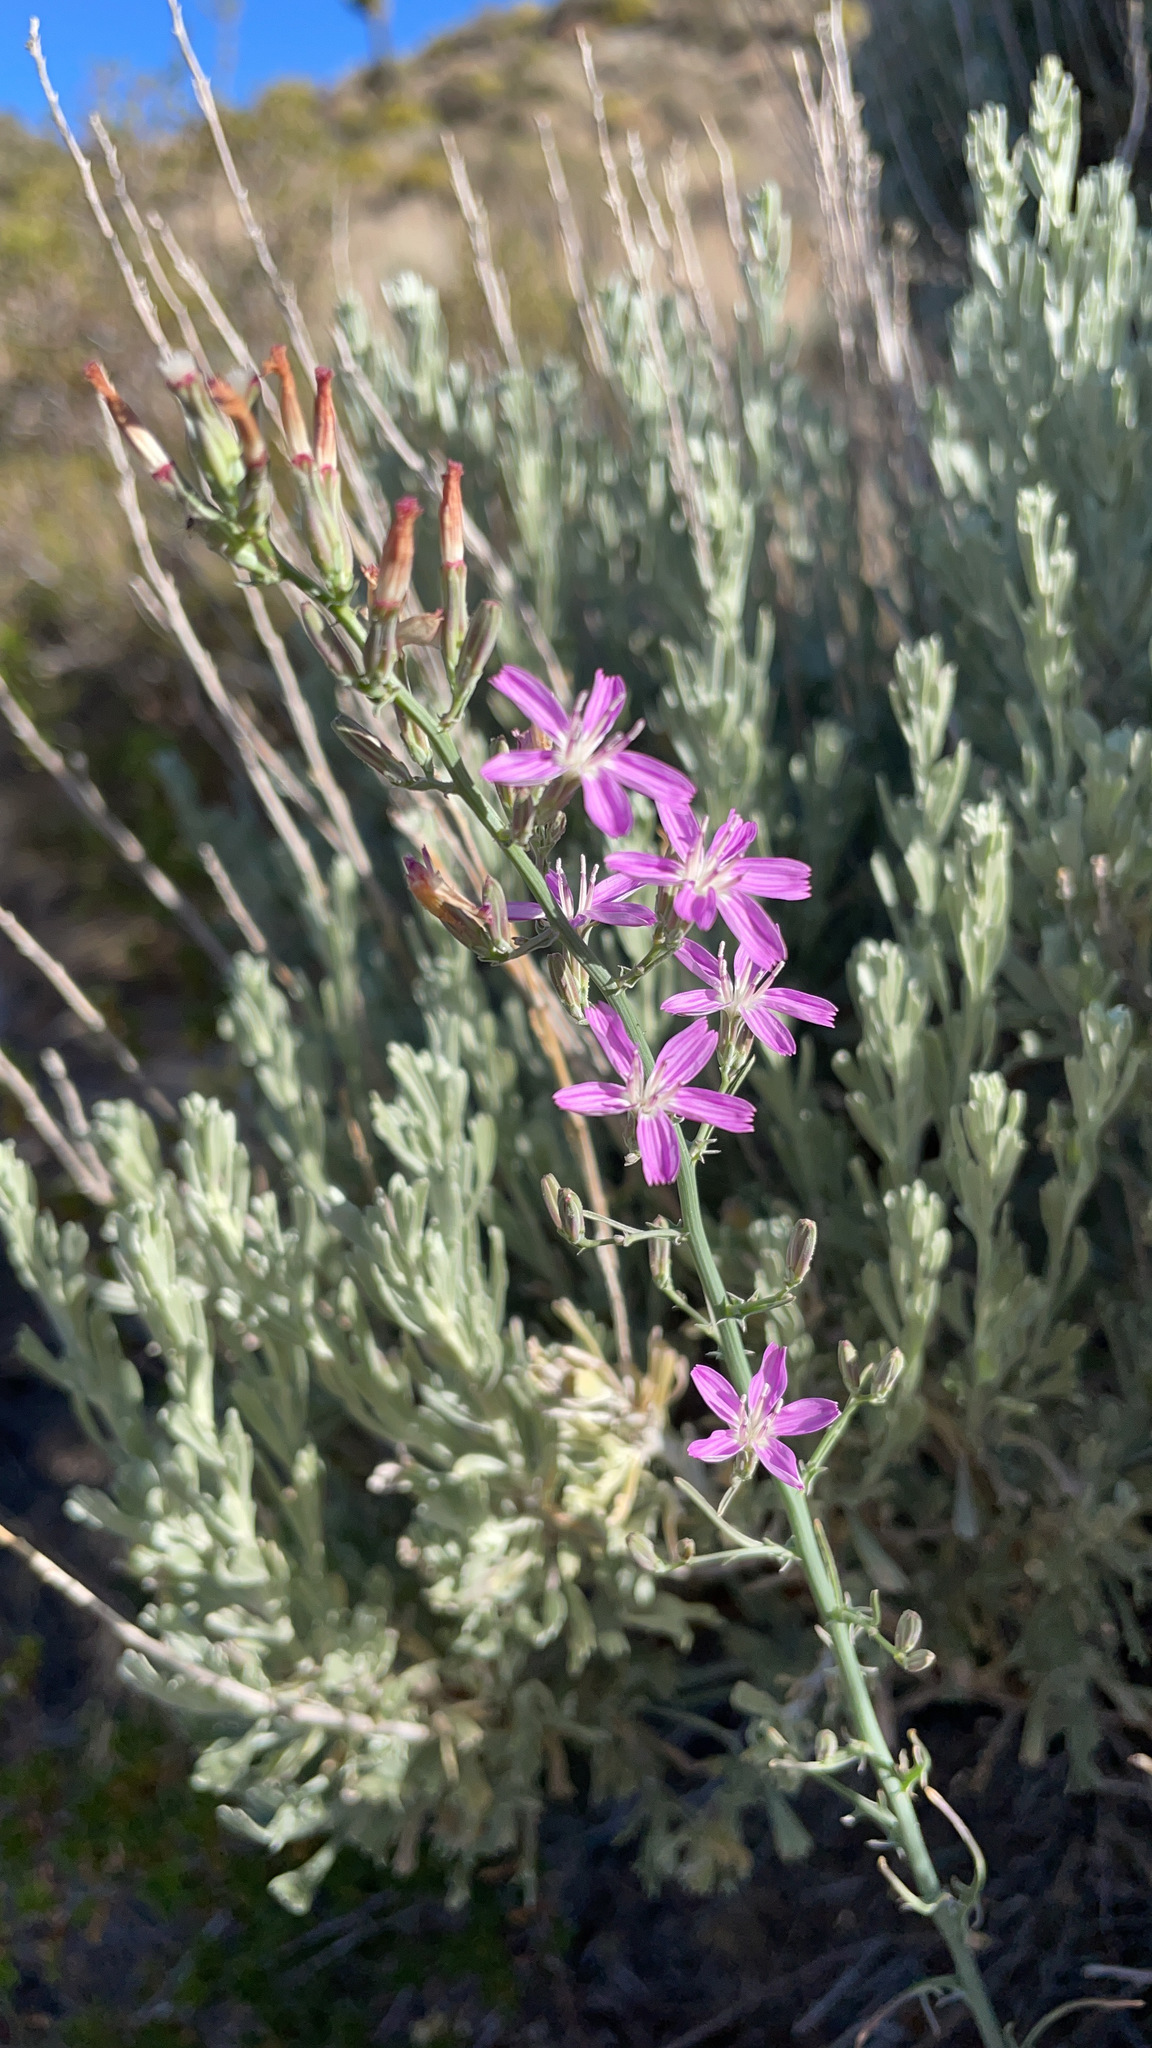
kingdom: Plantae
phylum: Tracheophyta
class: Magnoliopsida
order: Asterales
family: Asteraceae
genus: Stephanomeria
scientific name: Stephanomeria exigua
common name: Small wirelettuce
